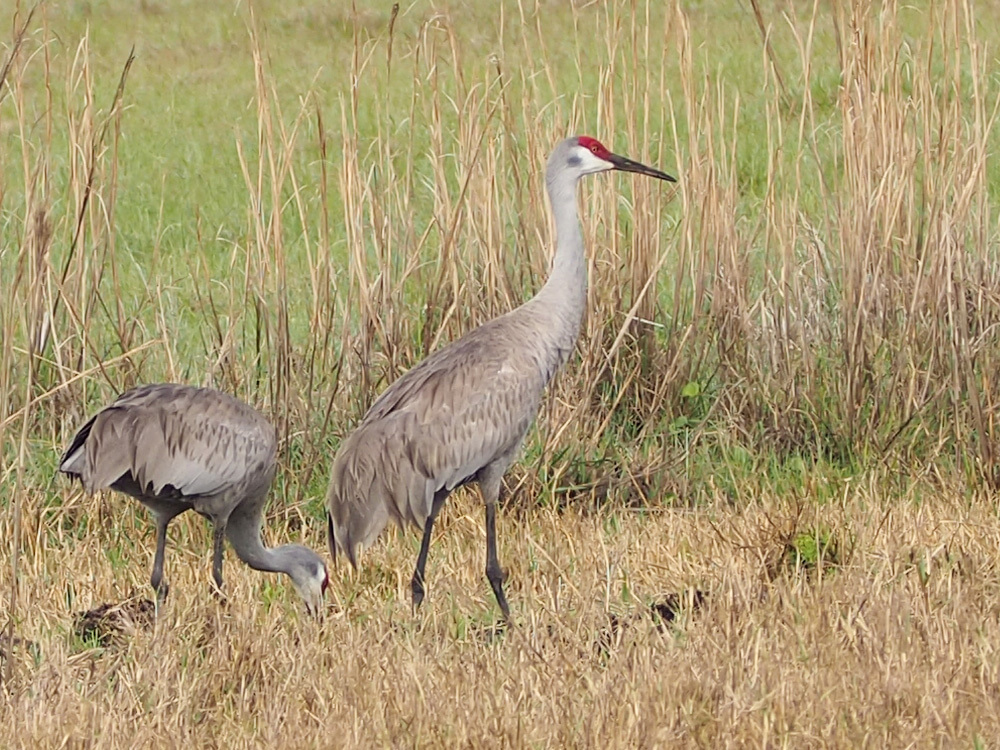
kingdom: Animalia
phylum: Chordata
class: Aves
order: Gruiformes
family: Gruidae
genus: Grus
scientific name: Grus canadensis
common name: Sandhill crane
